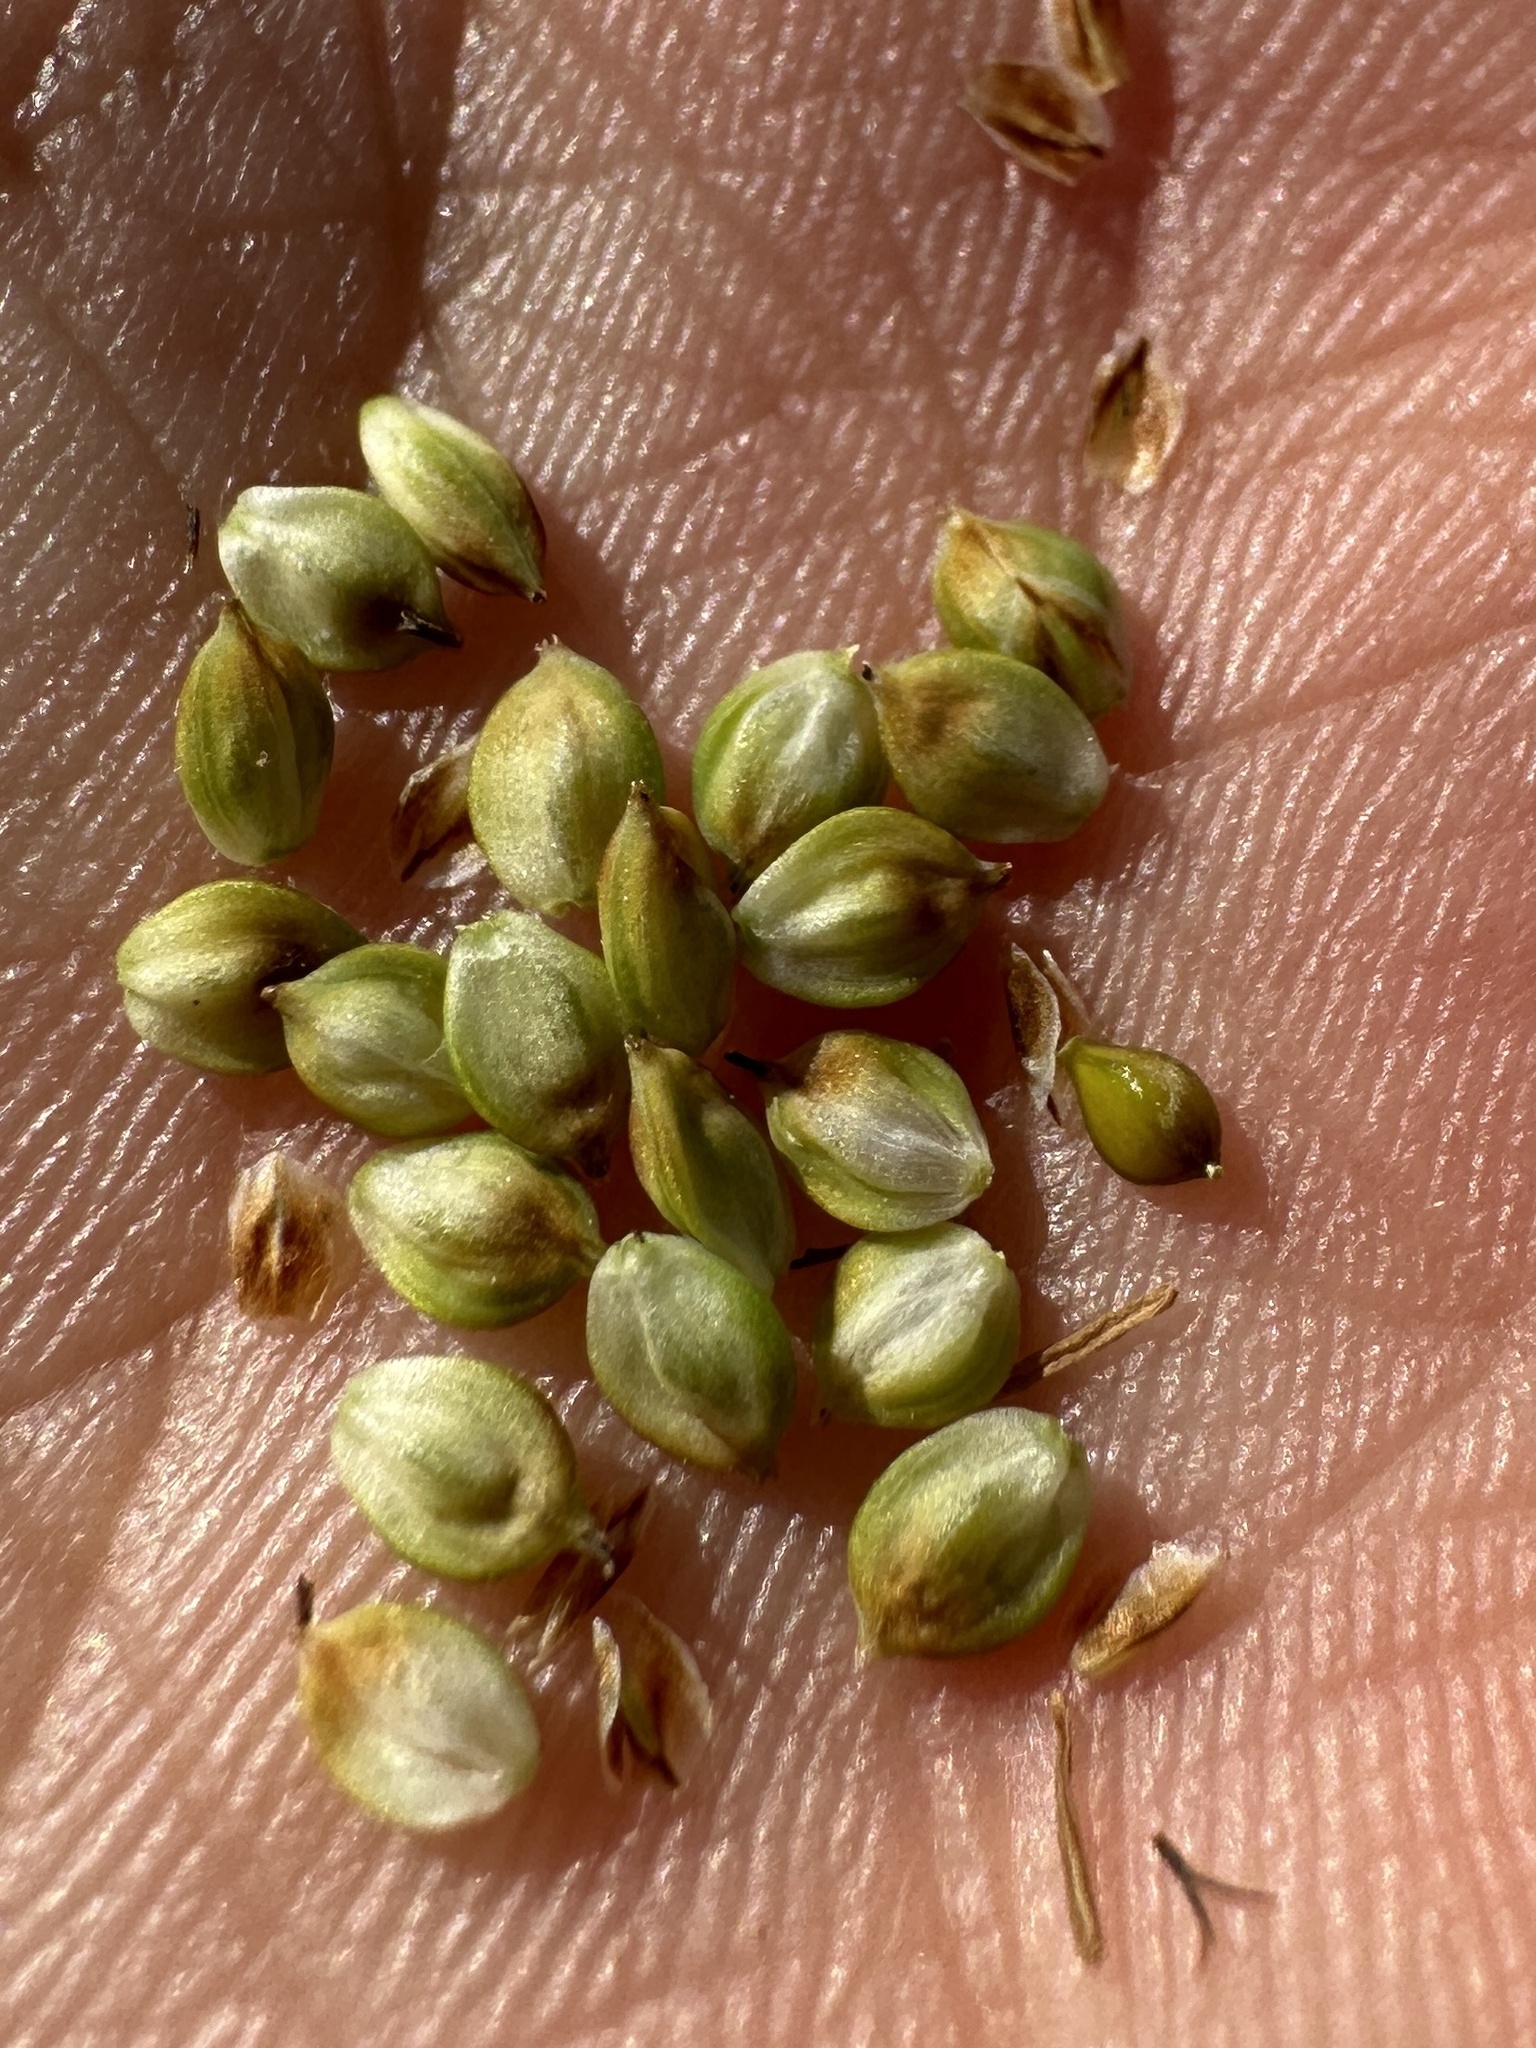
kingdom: Plantae
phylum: Tracheophyta
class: Liliopsida
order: Poales
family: Cyperaceae
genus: Carex
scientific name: Carex holmgreniorum
